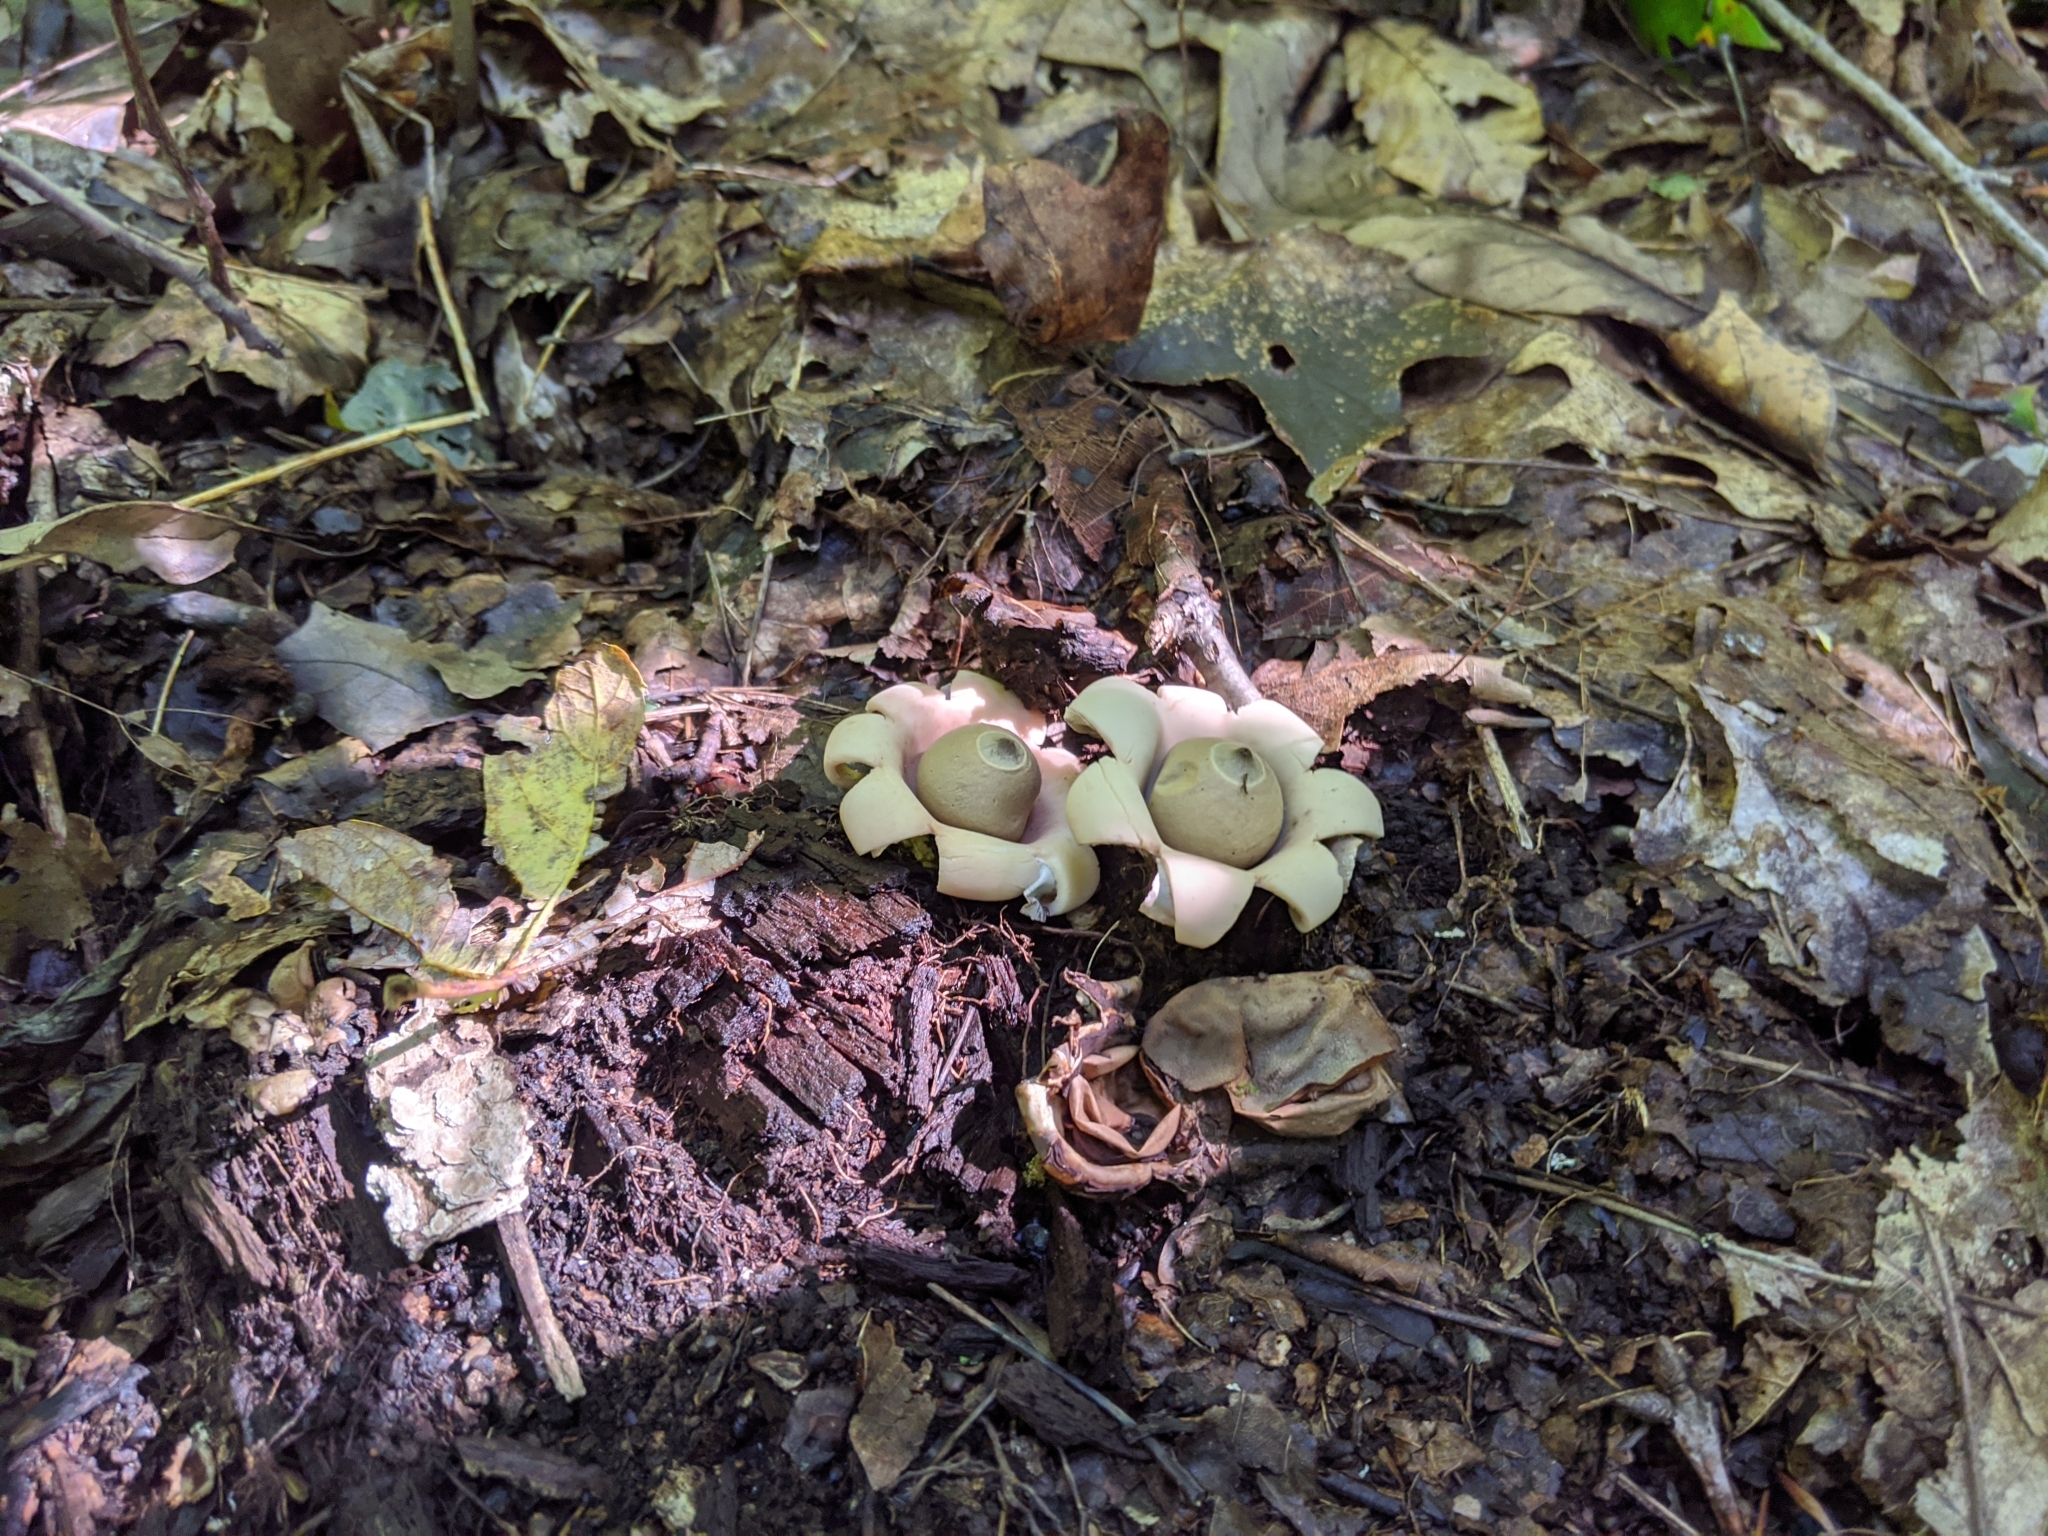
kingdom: Fungi
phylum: Basidiomycota
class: Agaricomycetes
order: Geastrales
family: Geastraceae
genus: Geastrum
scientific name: Geastrum saccatum
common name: Rounded earthstar
